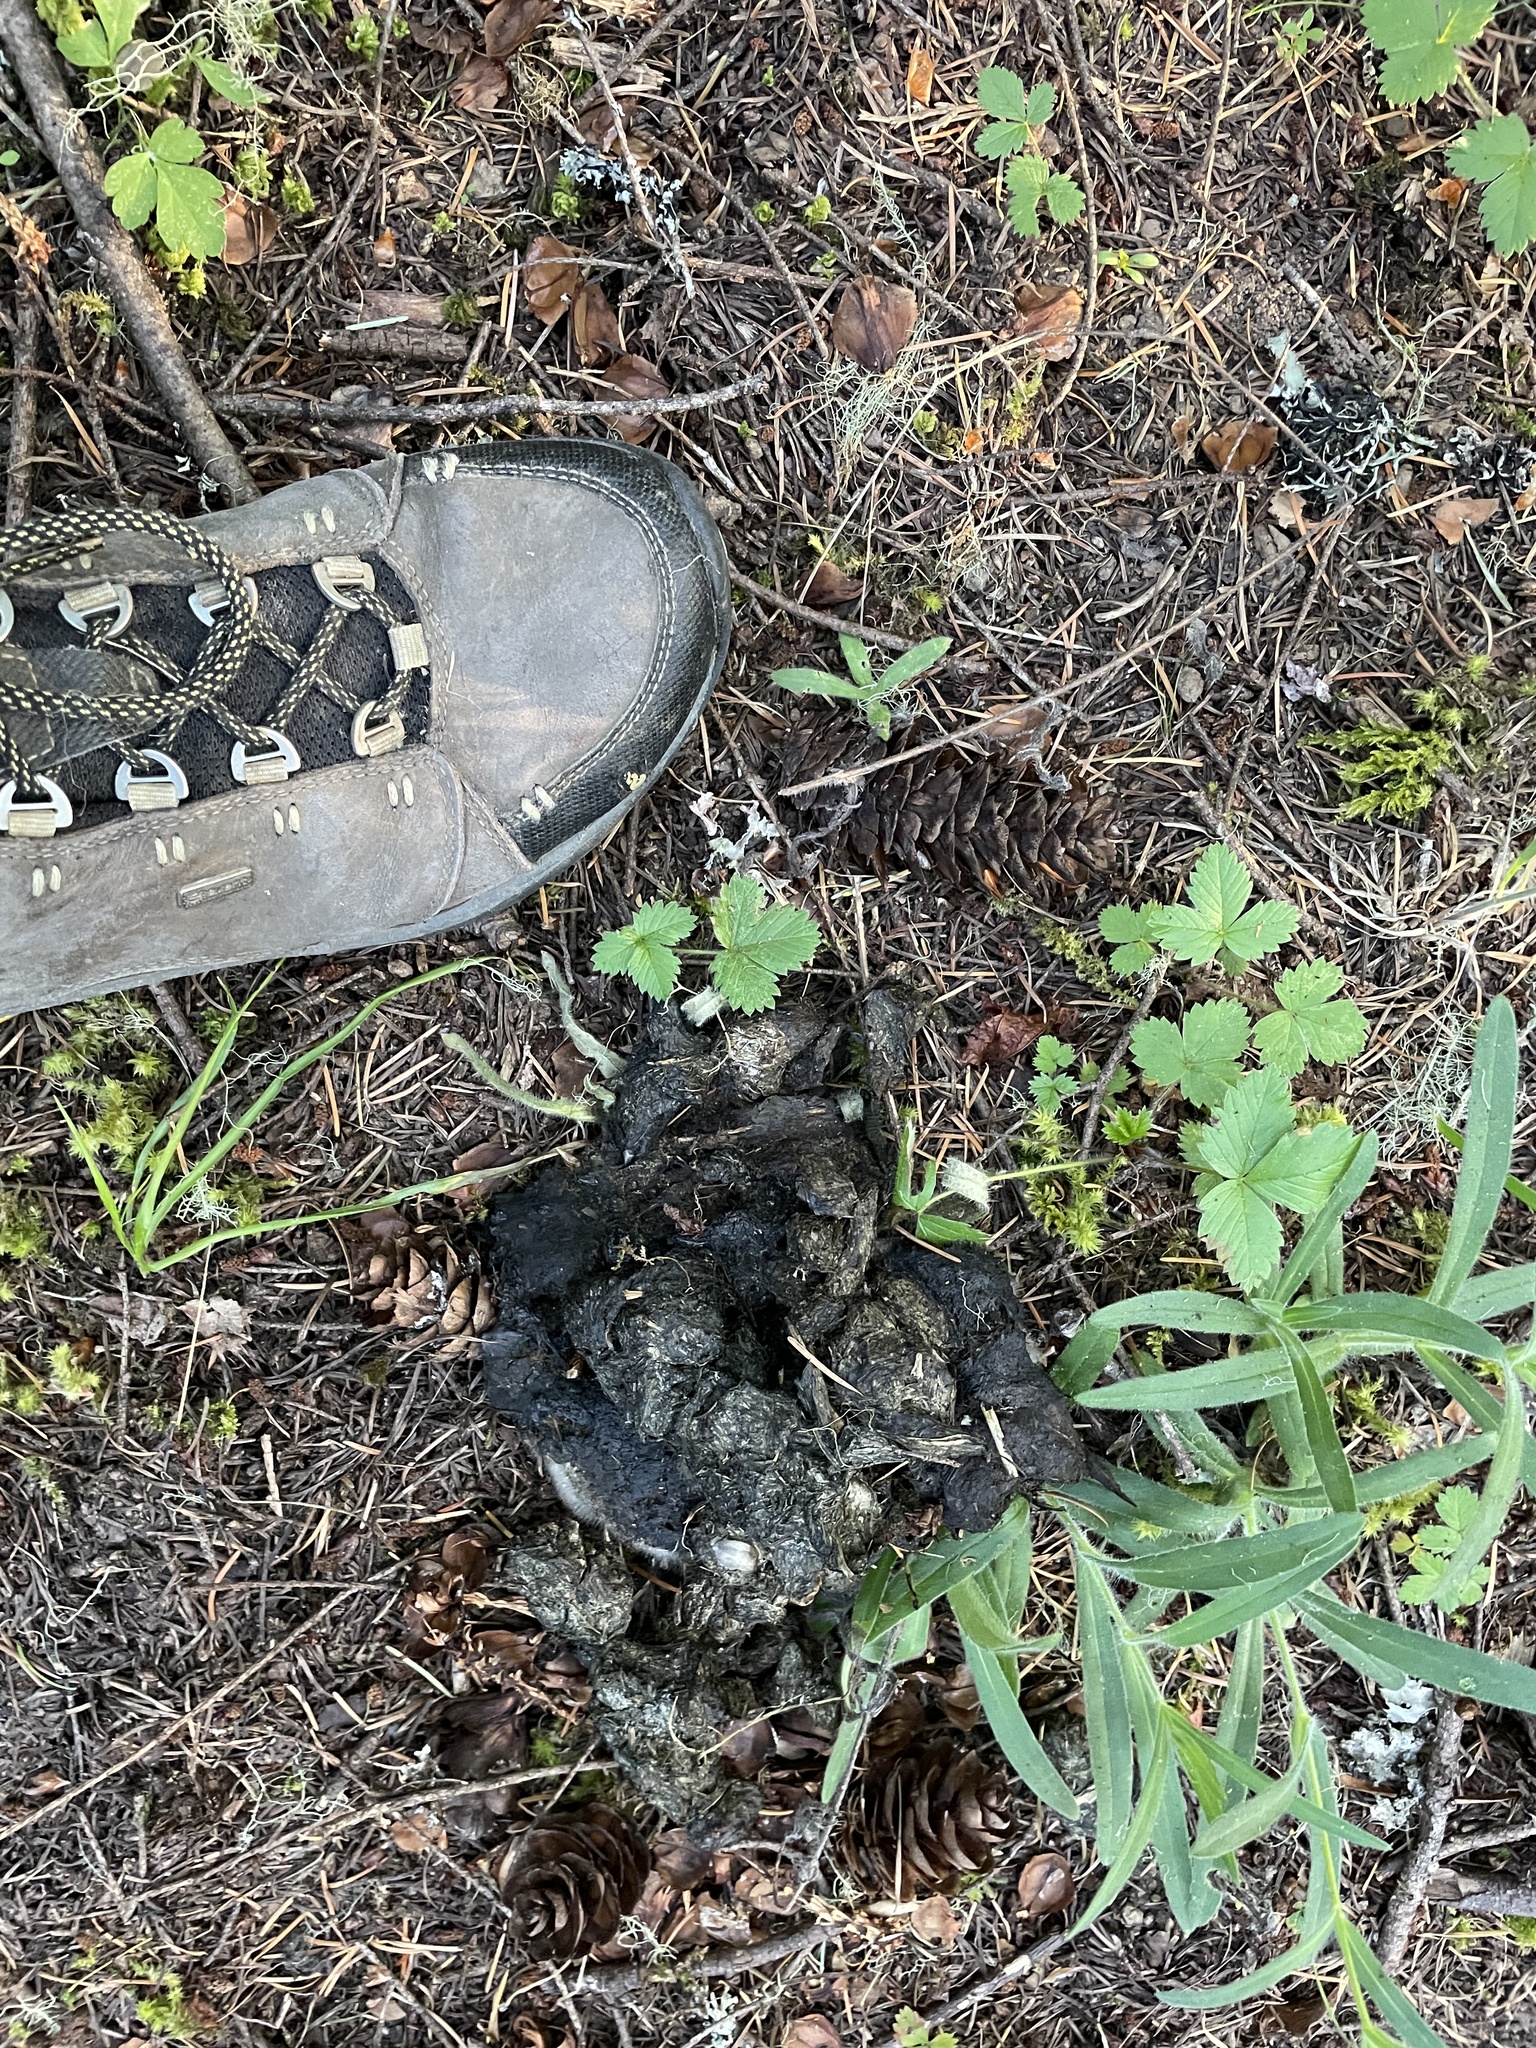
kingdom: Animalia
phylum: Chordata
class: Mammalia
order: Carnivora
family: Ursidae
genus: Ursus
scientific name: Ursus americanus
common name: American black bear
